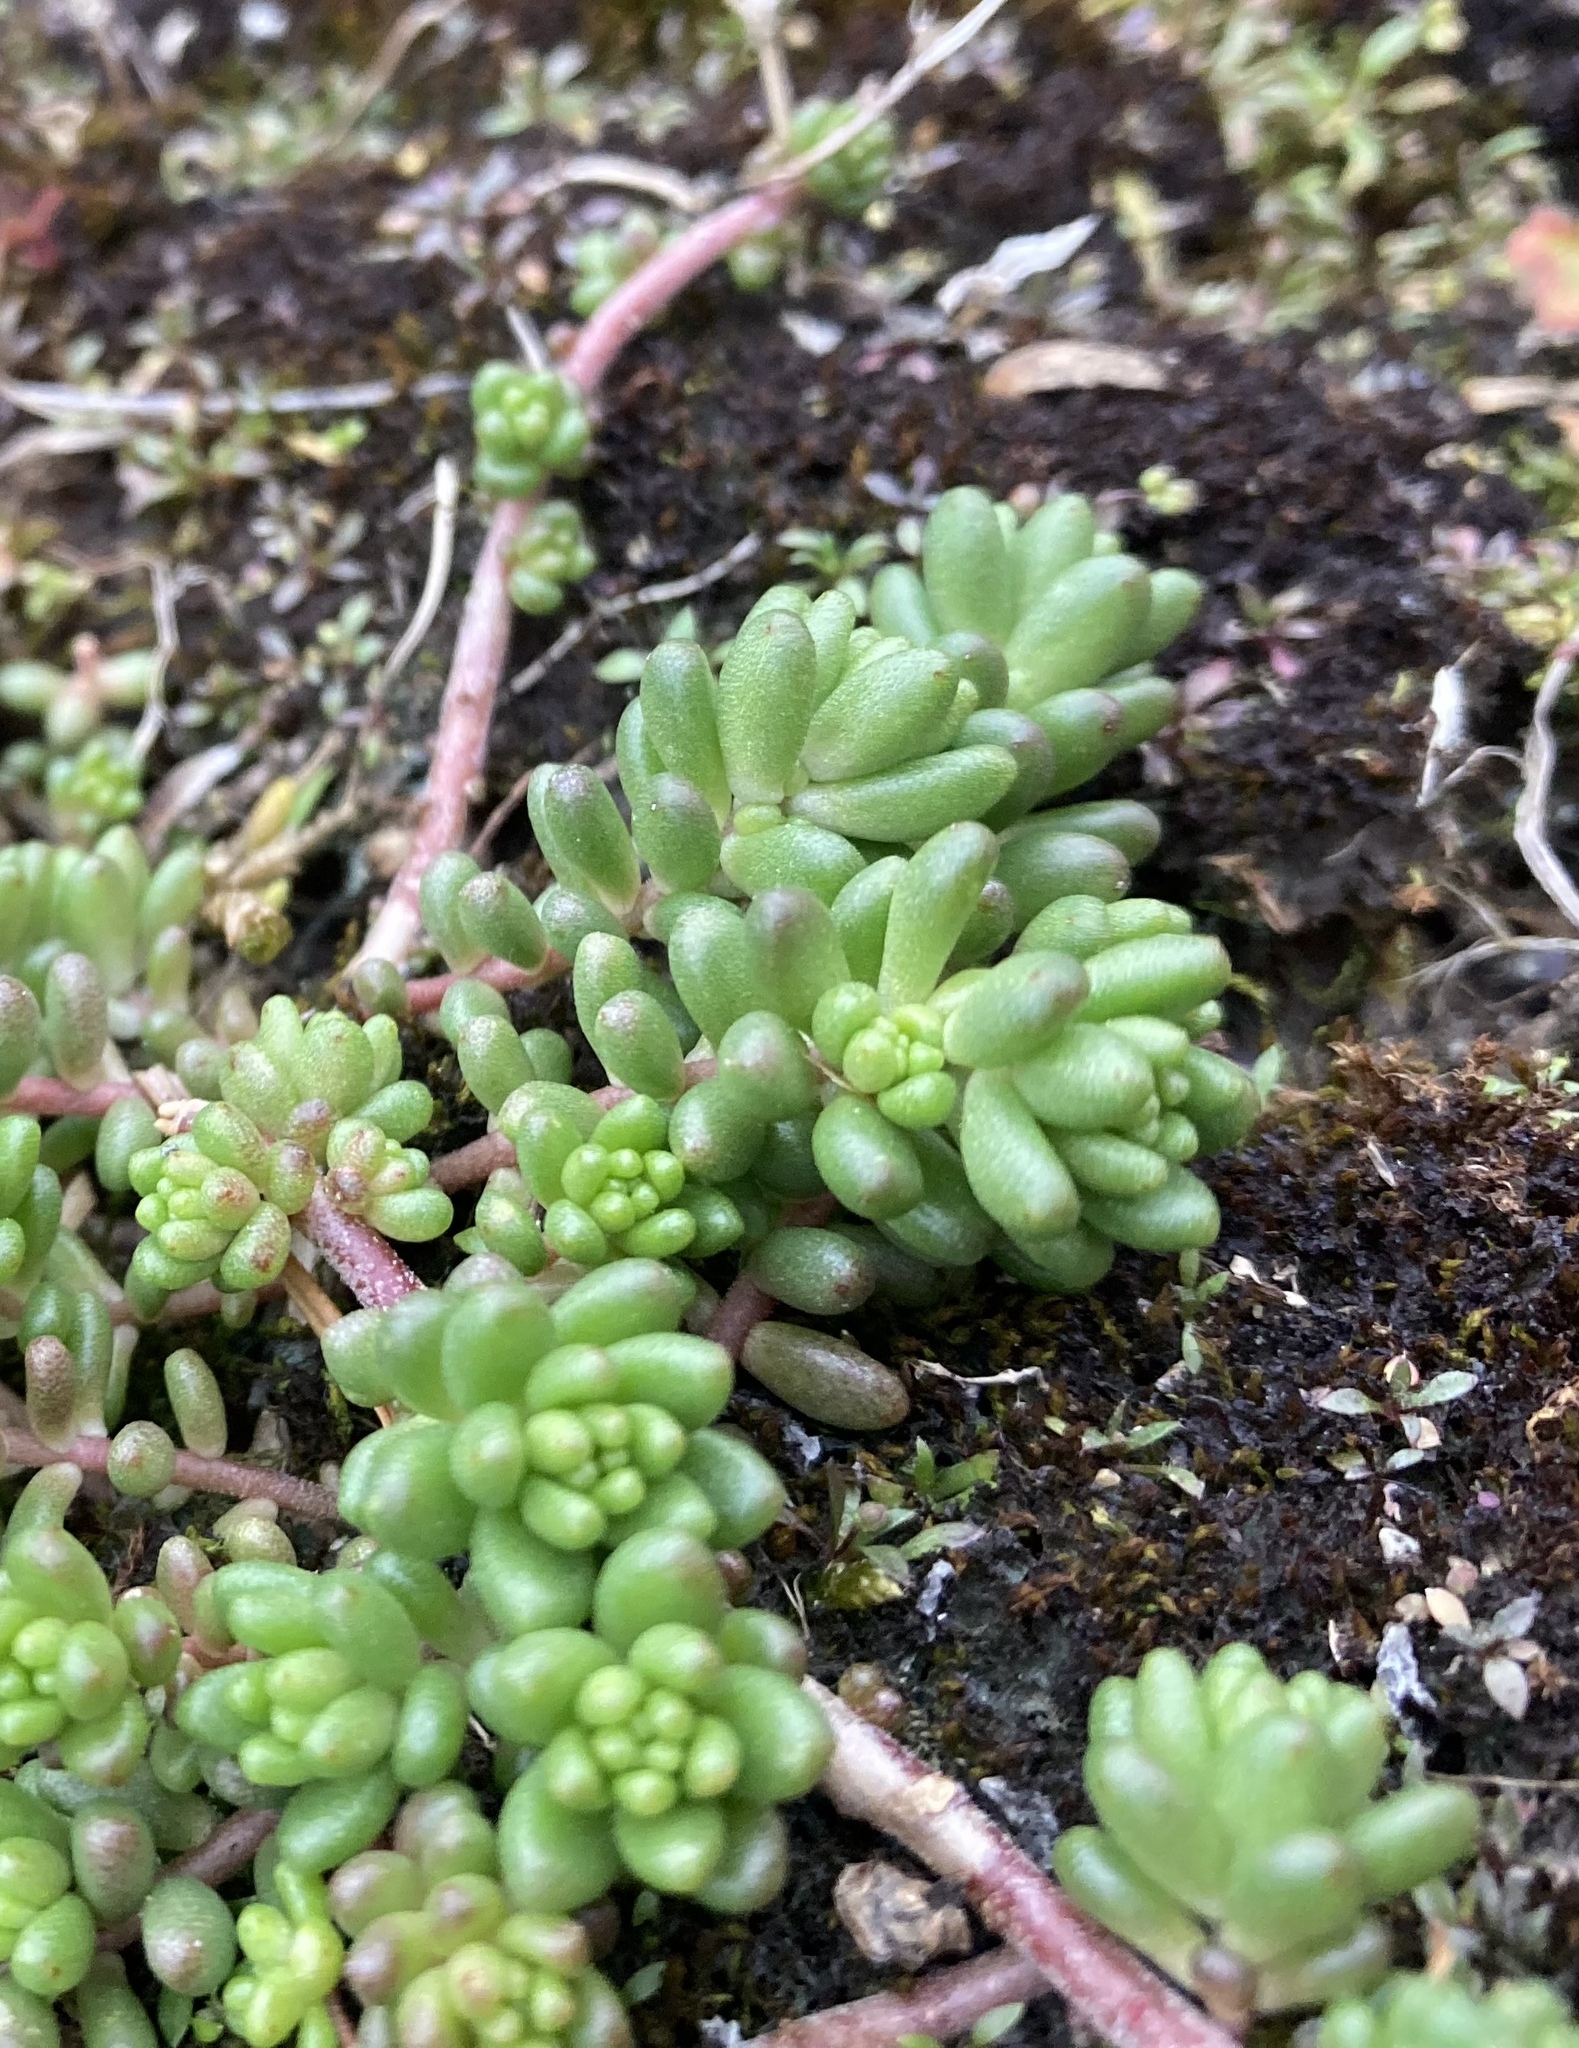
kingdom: Plantae
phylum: Tracheophyta
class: Magnoliopsida
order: Saxifragales
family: Crassulaceae
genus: Sedum
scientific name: Sedum album
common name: White stonecrop
